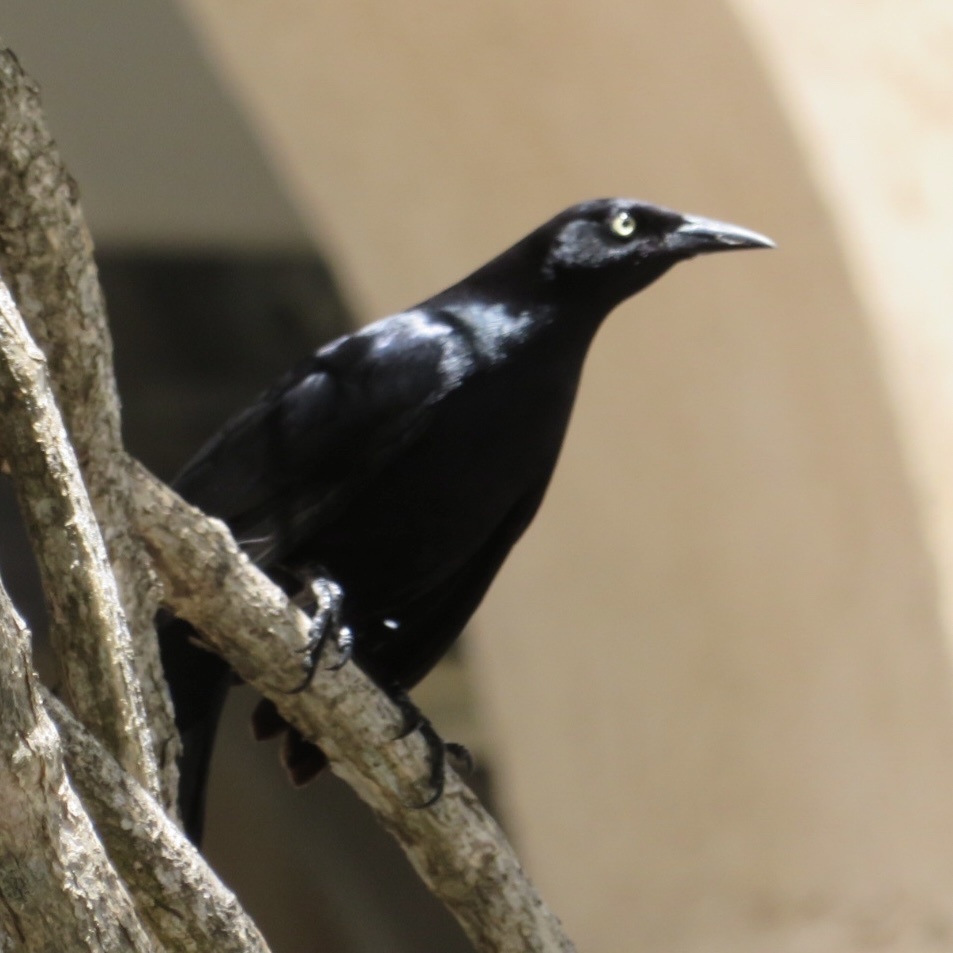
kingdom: Animalia
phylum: Chordata
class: Aves
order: Passeriformes
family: Icteridae
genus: Quiscalus
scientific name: Quiscalus niger
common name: Greater antillean grackle
